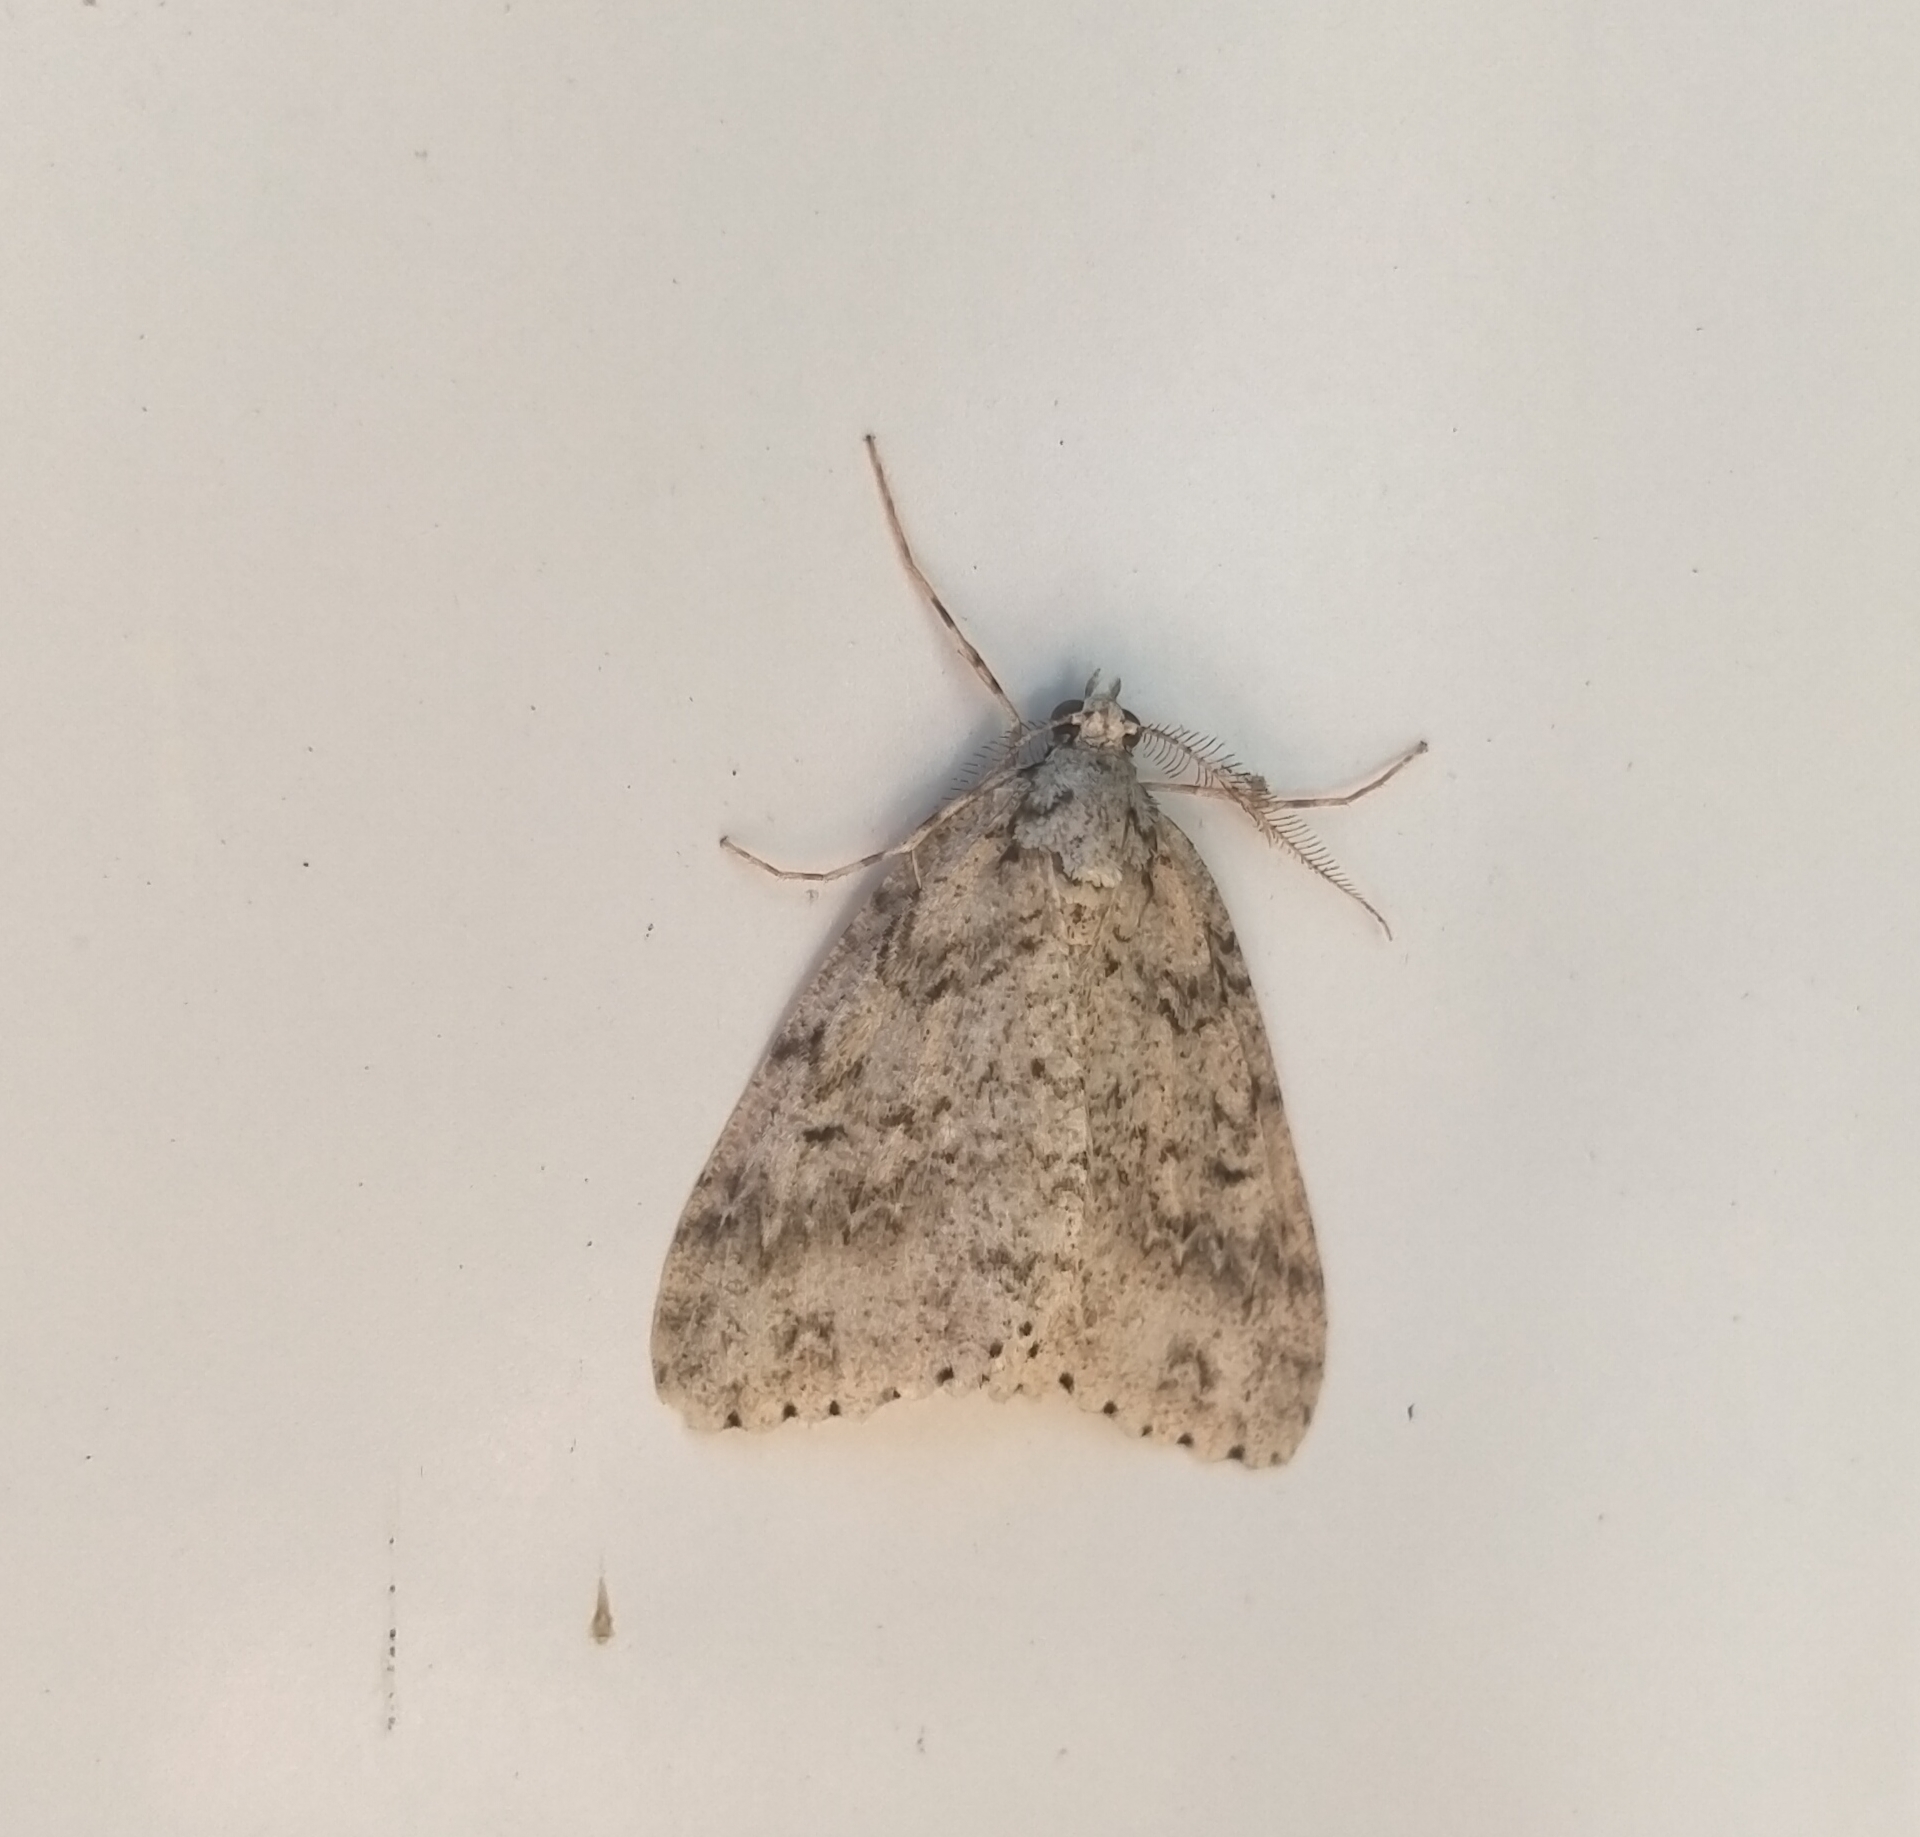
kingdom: Animalia
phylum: Arthropoda
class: Insecta
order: Lepidoptera
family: Geometridae
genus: Pseudocoremia
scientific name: Pseudocoremia rudisata
